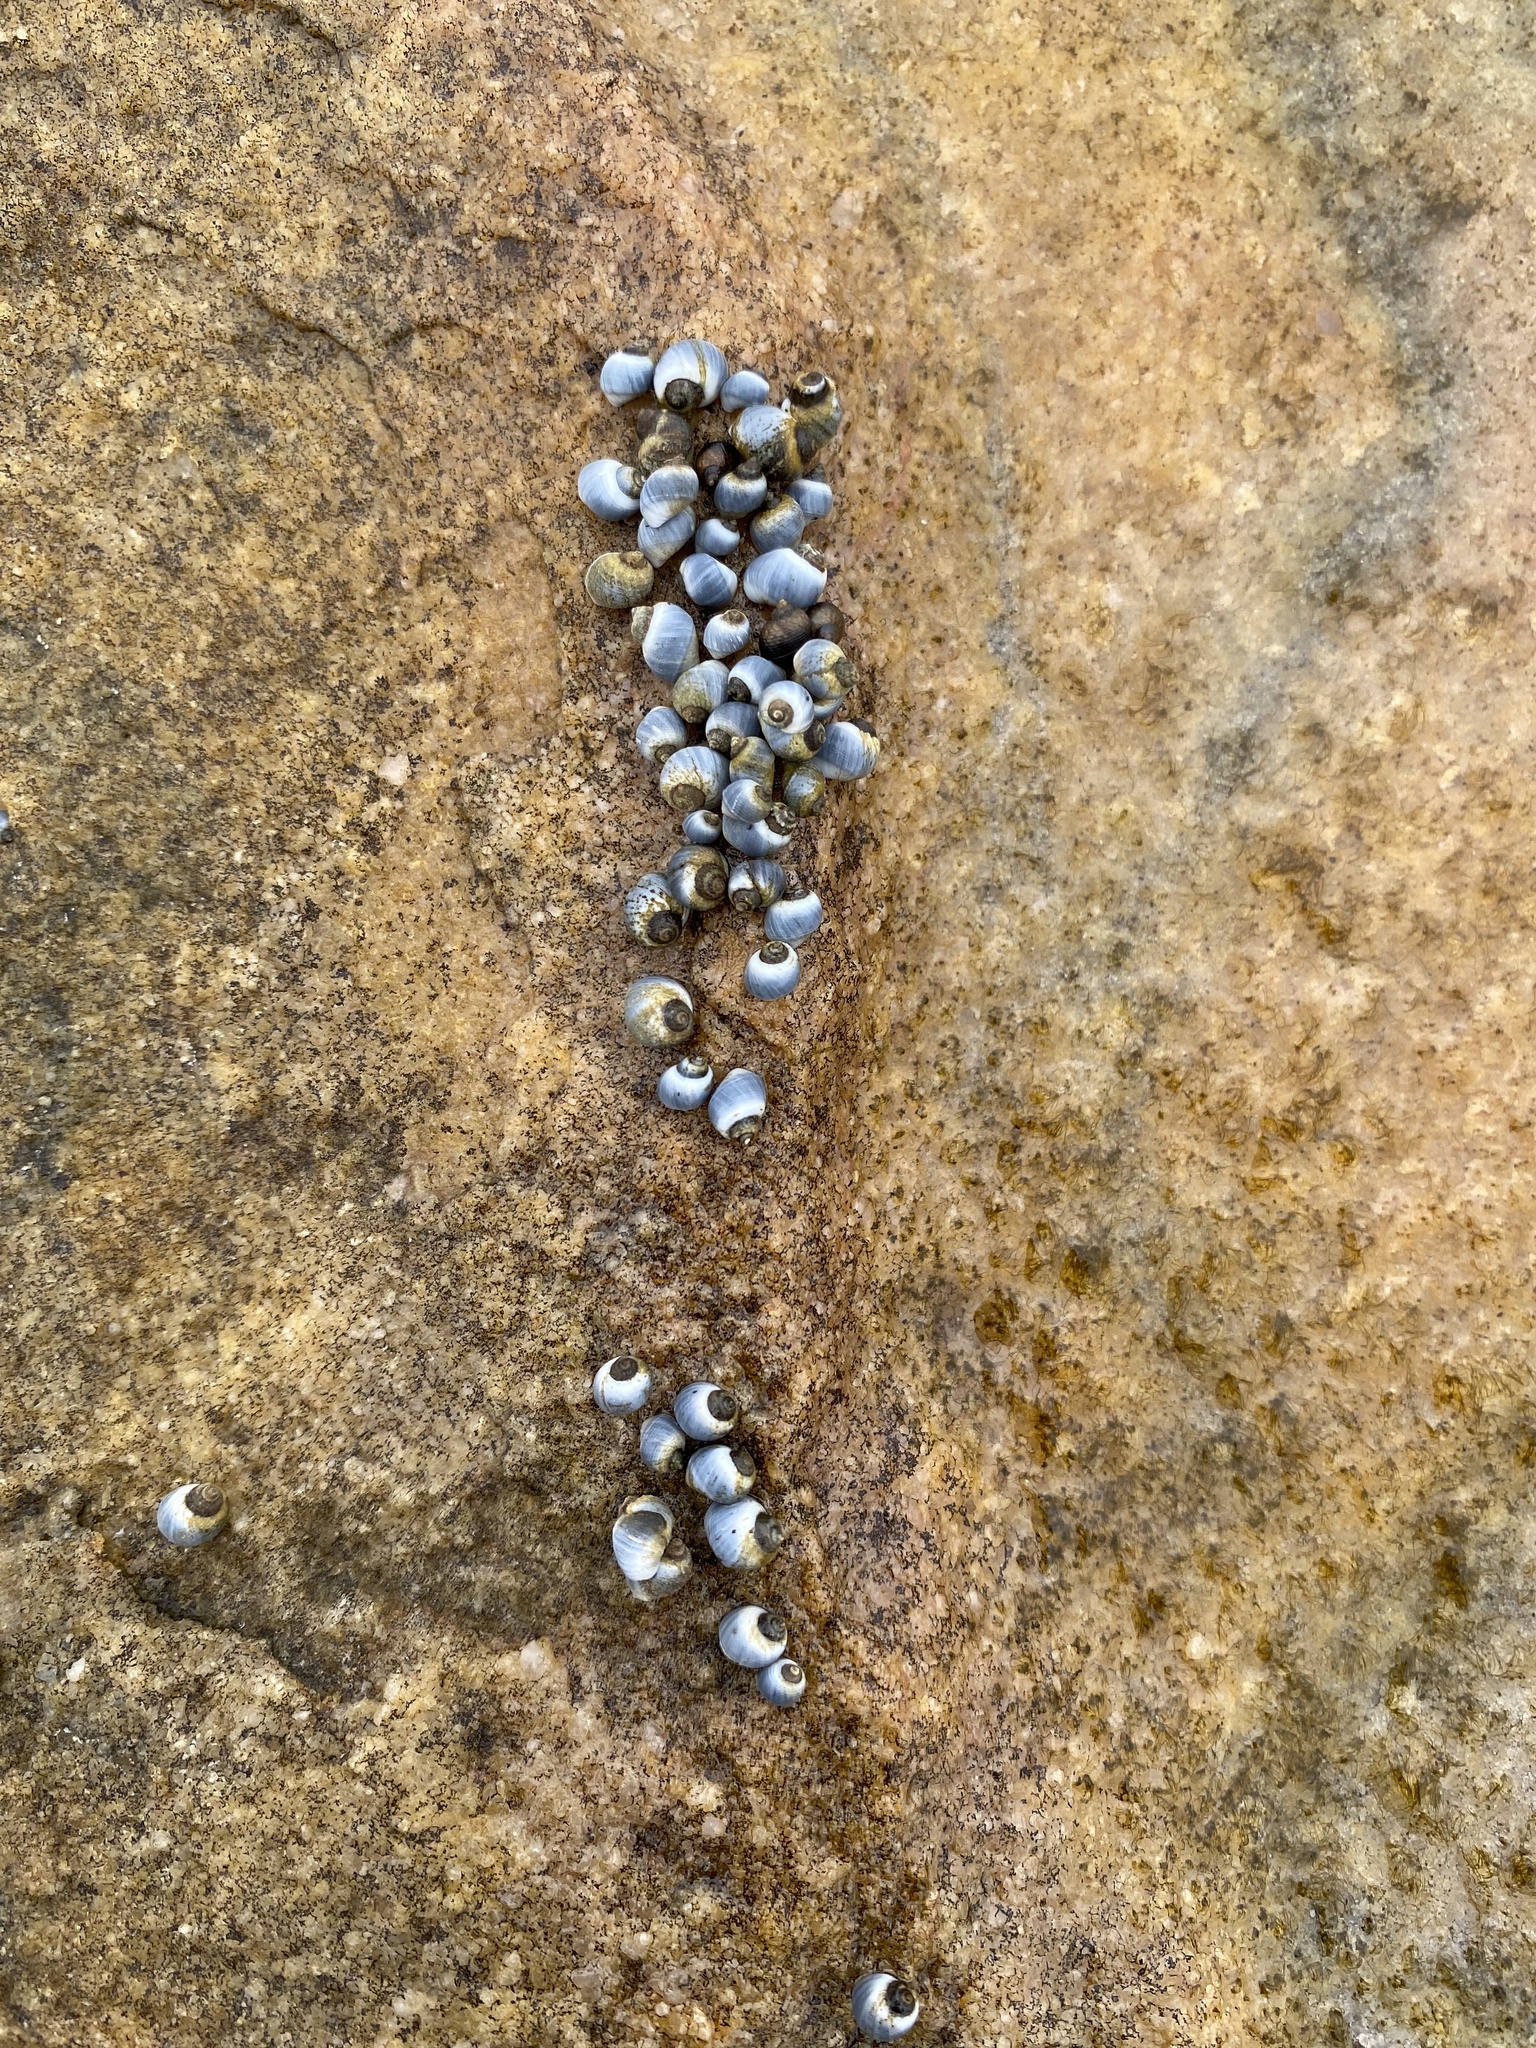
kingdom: Animalia
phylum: Mollusca
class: Gastropoda
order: Littorinimorpha
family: Littorinidae
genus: Afrolittorina
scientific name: Afrolittorina africana
